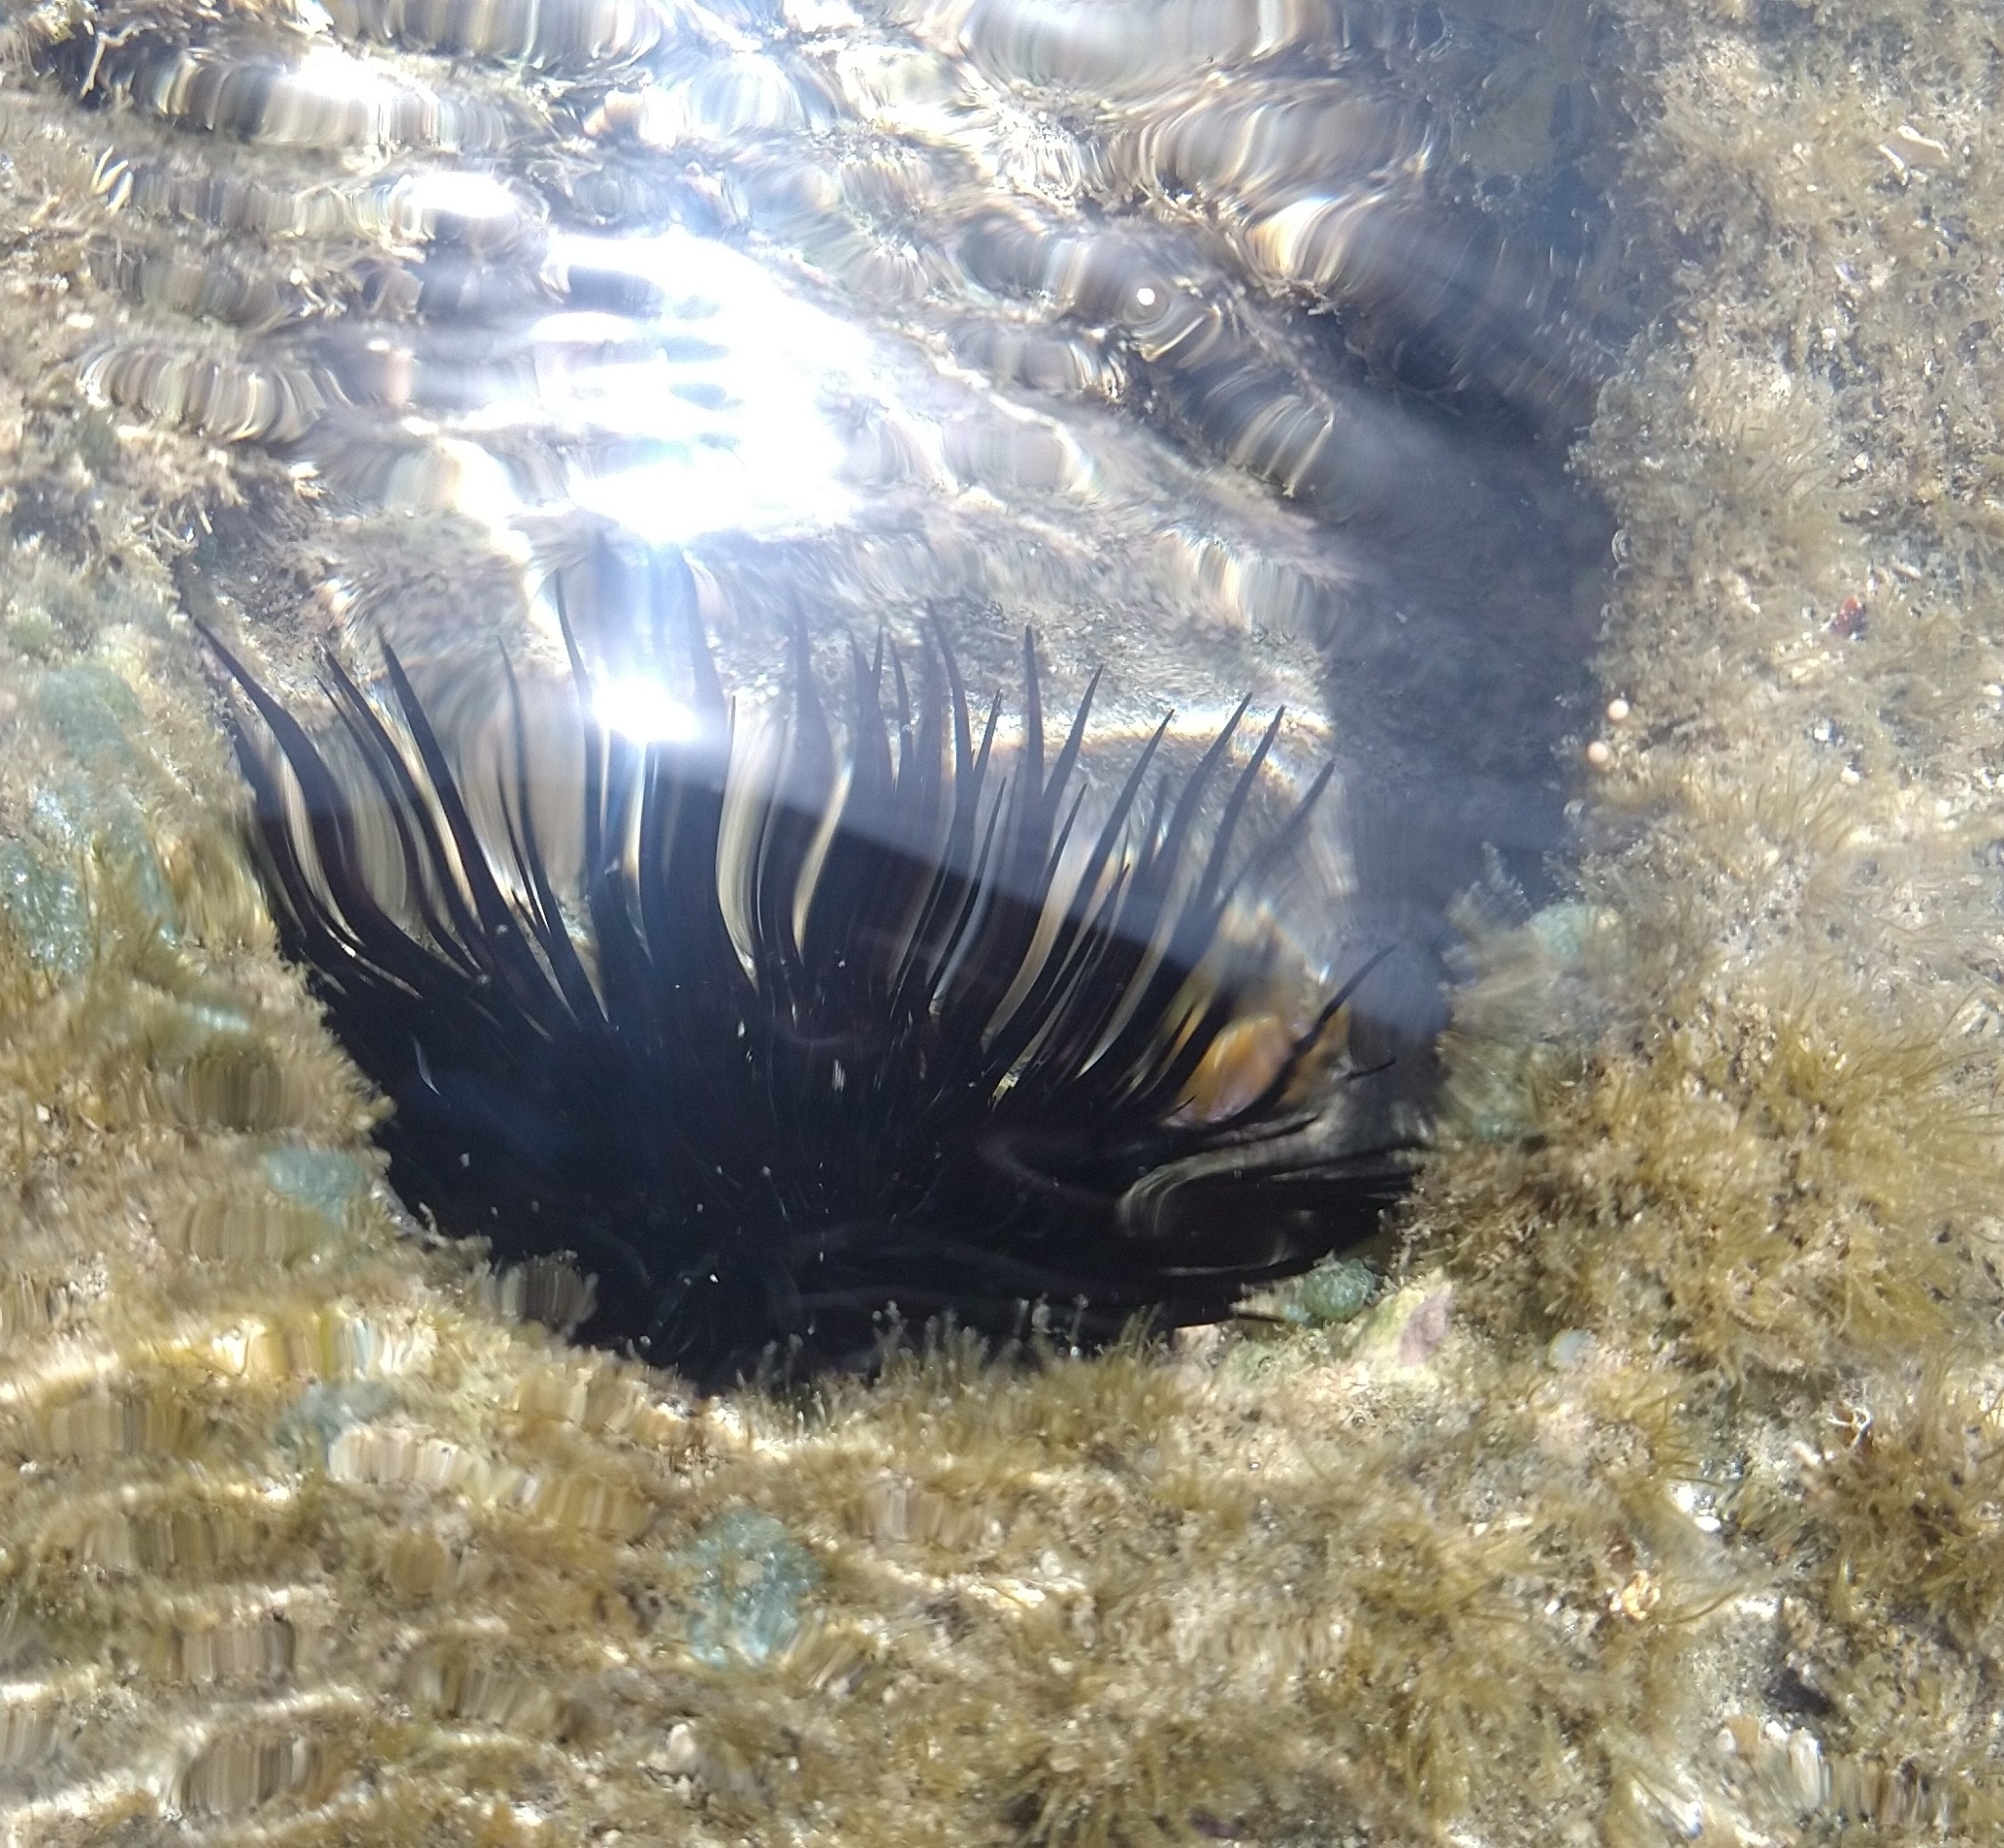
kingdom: Animalia
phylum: Echinodermata
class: Echinoidea
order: Camarodonta
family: Echinometridae
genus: Echinometra
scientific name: Echinometra lucunter
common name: Rock urchin
